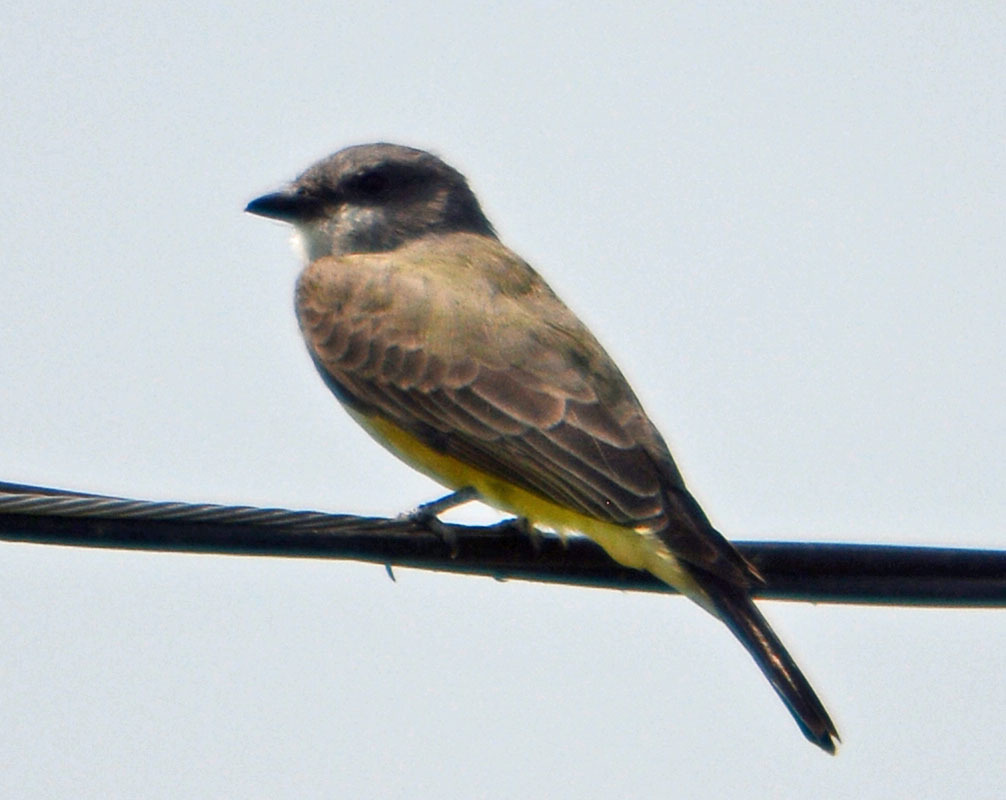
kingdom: Animalia
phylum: Chordata
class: Aves
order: Passeriformes
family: Tyrannidae
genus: Tyrannus
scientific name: Tyrannus vociferans
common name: Cassin's kingbird
